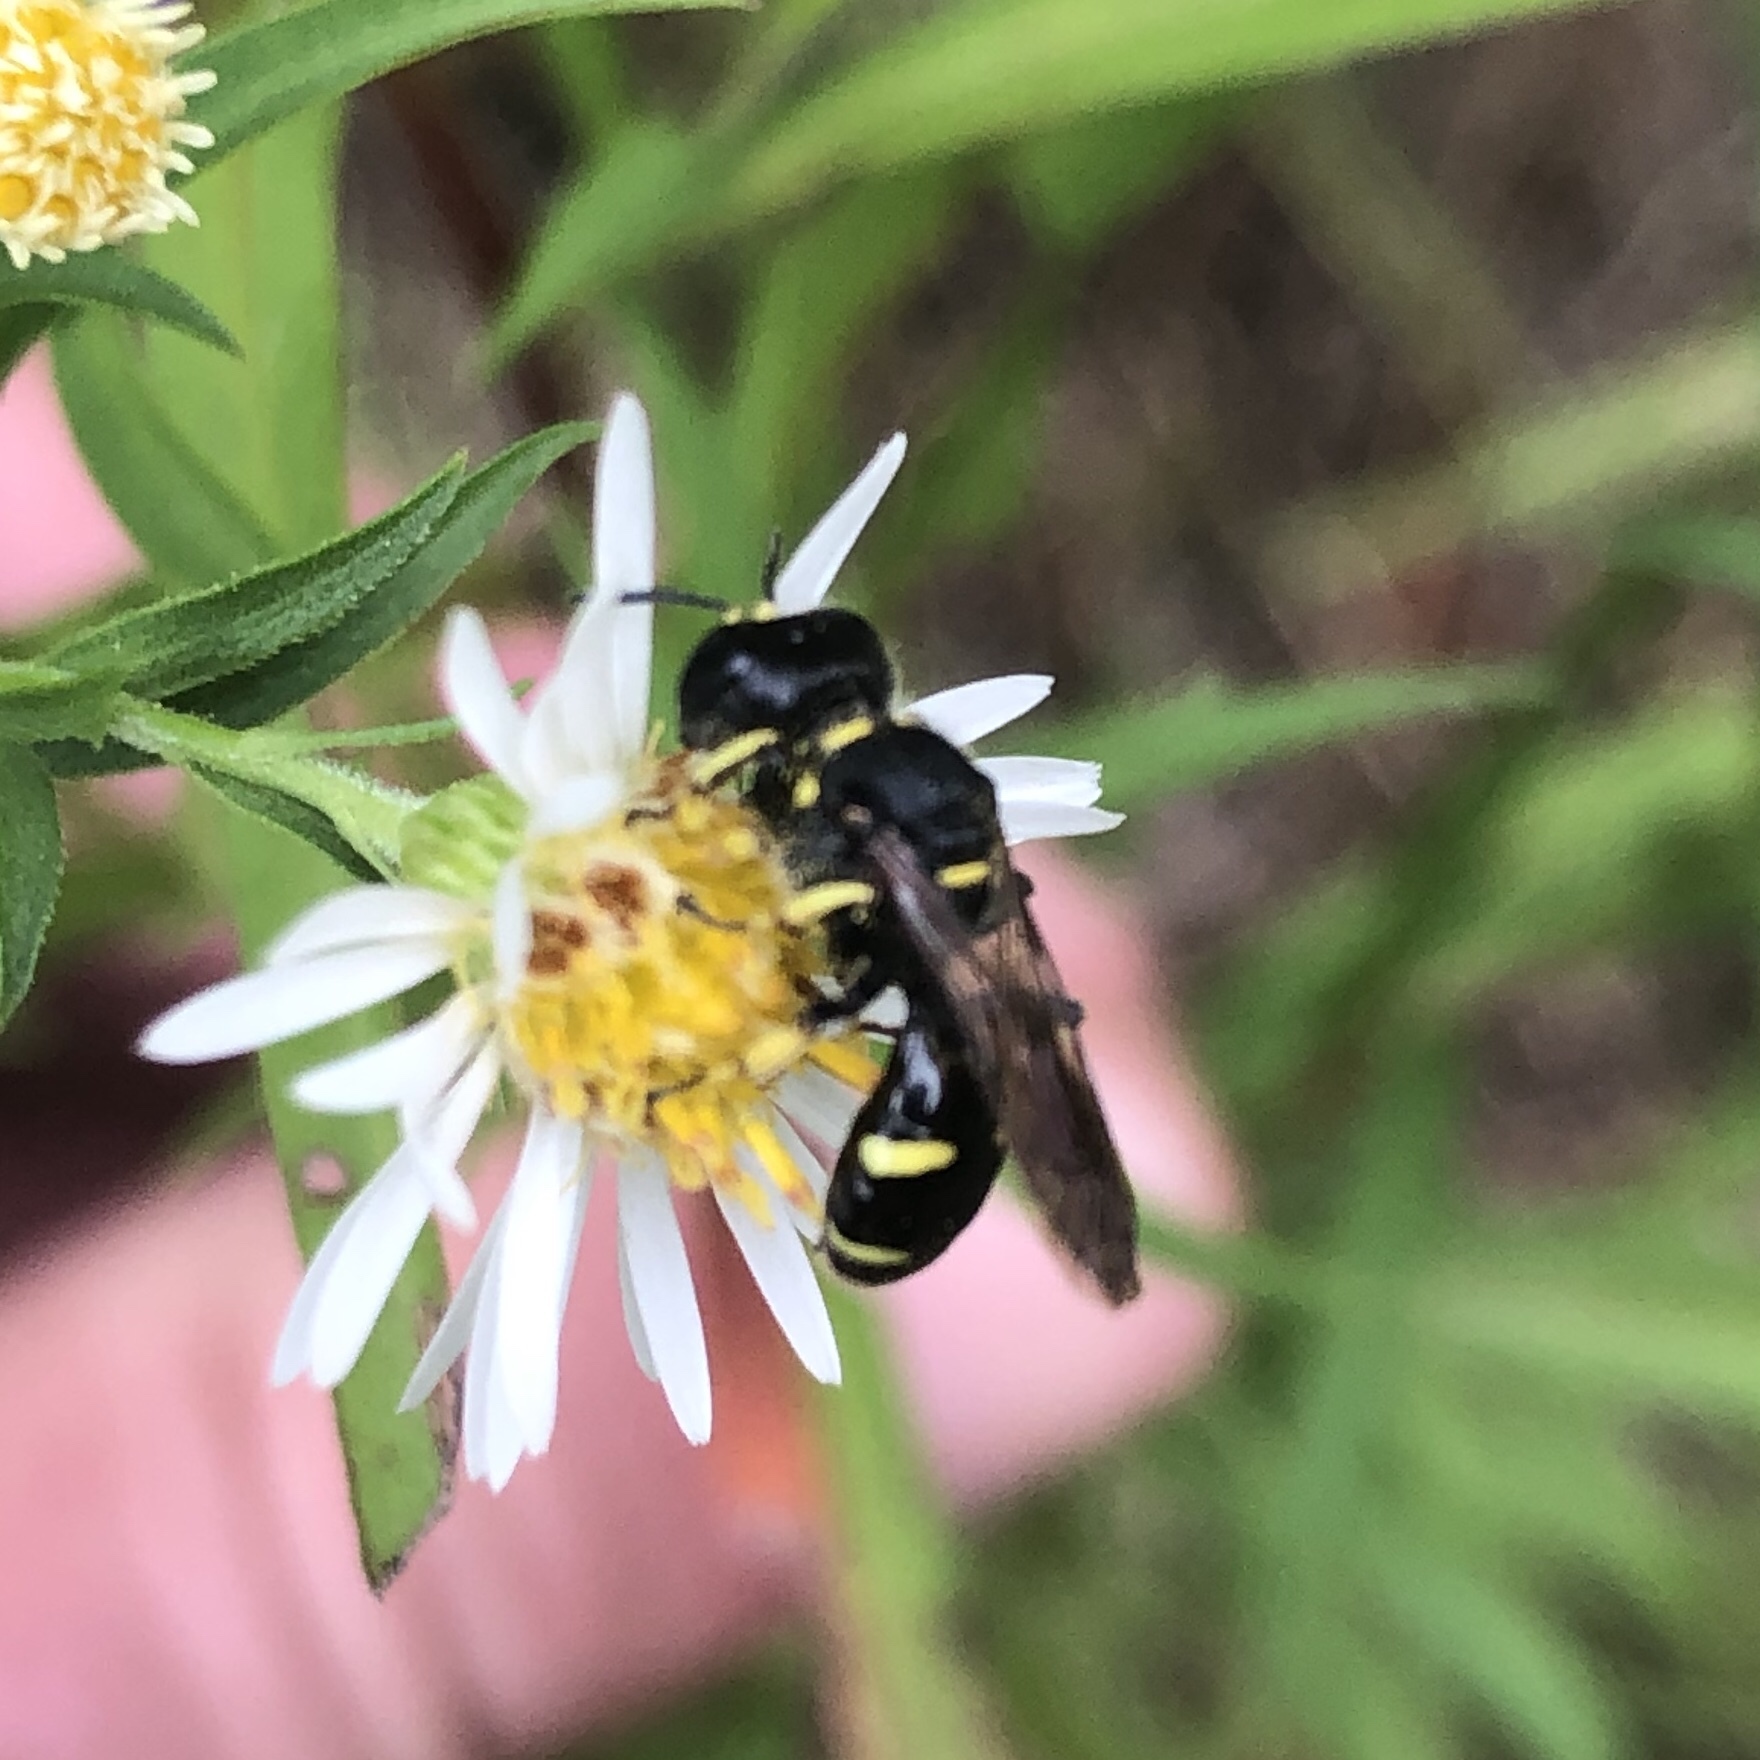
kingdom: Animalia
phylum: Arthropoda
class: Insecta
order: Hymenoptera
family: Crabronidae
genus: Ectemnius
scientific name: Ectemnius continuus
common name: Common ectemnius
